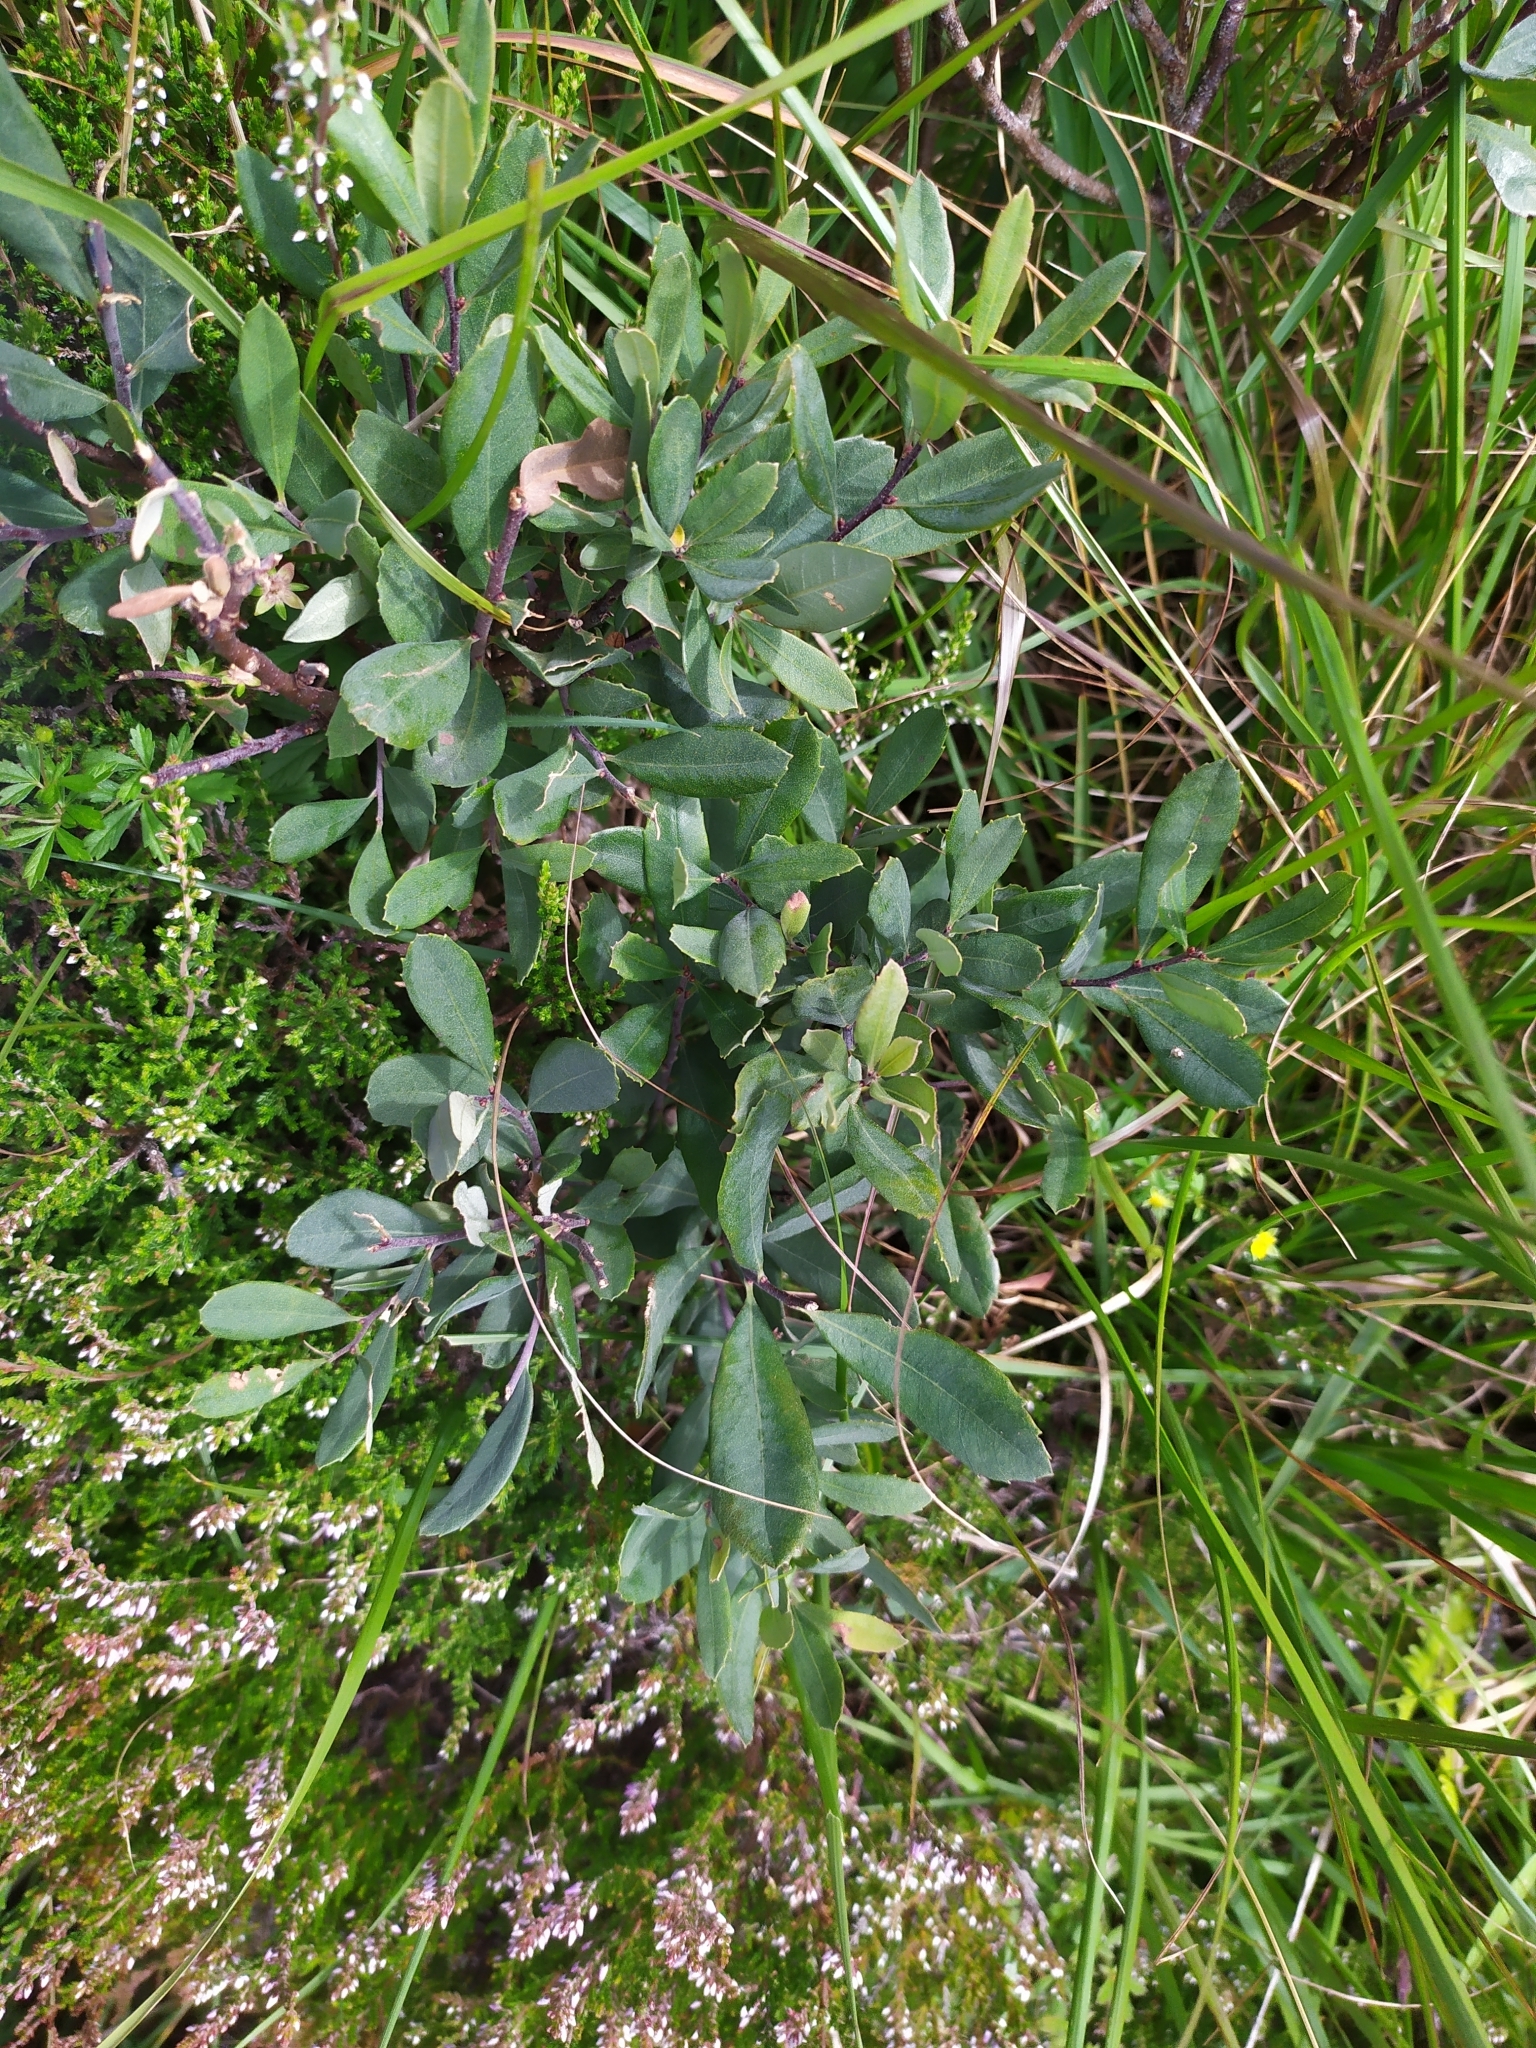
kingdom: Plantae
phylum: Tracheophyta
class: Magnoliopsida
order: Fagales
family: Myricaceae
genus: Myrica
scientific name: Myrica gale
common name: Sweet gale
